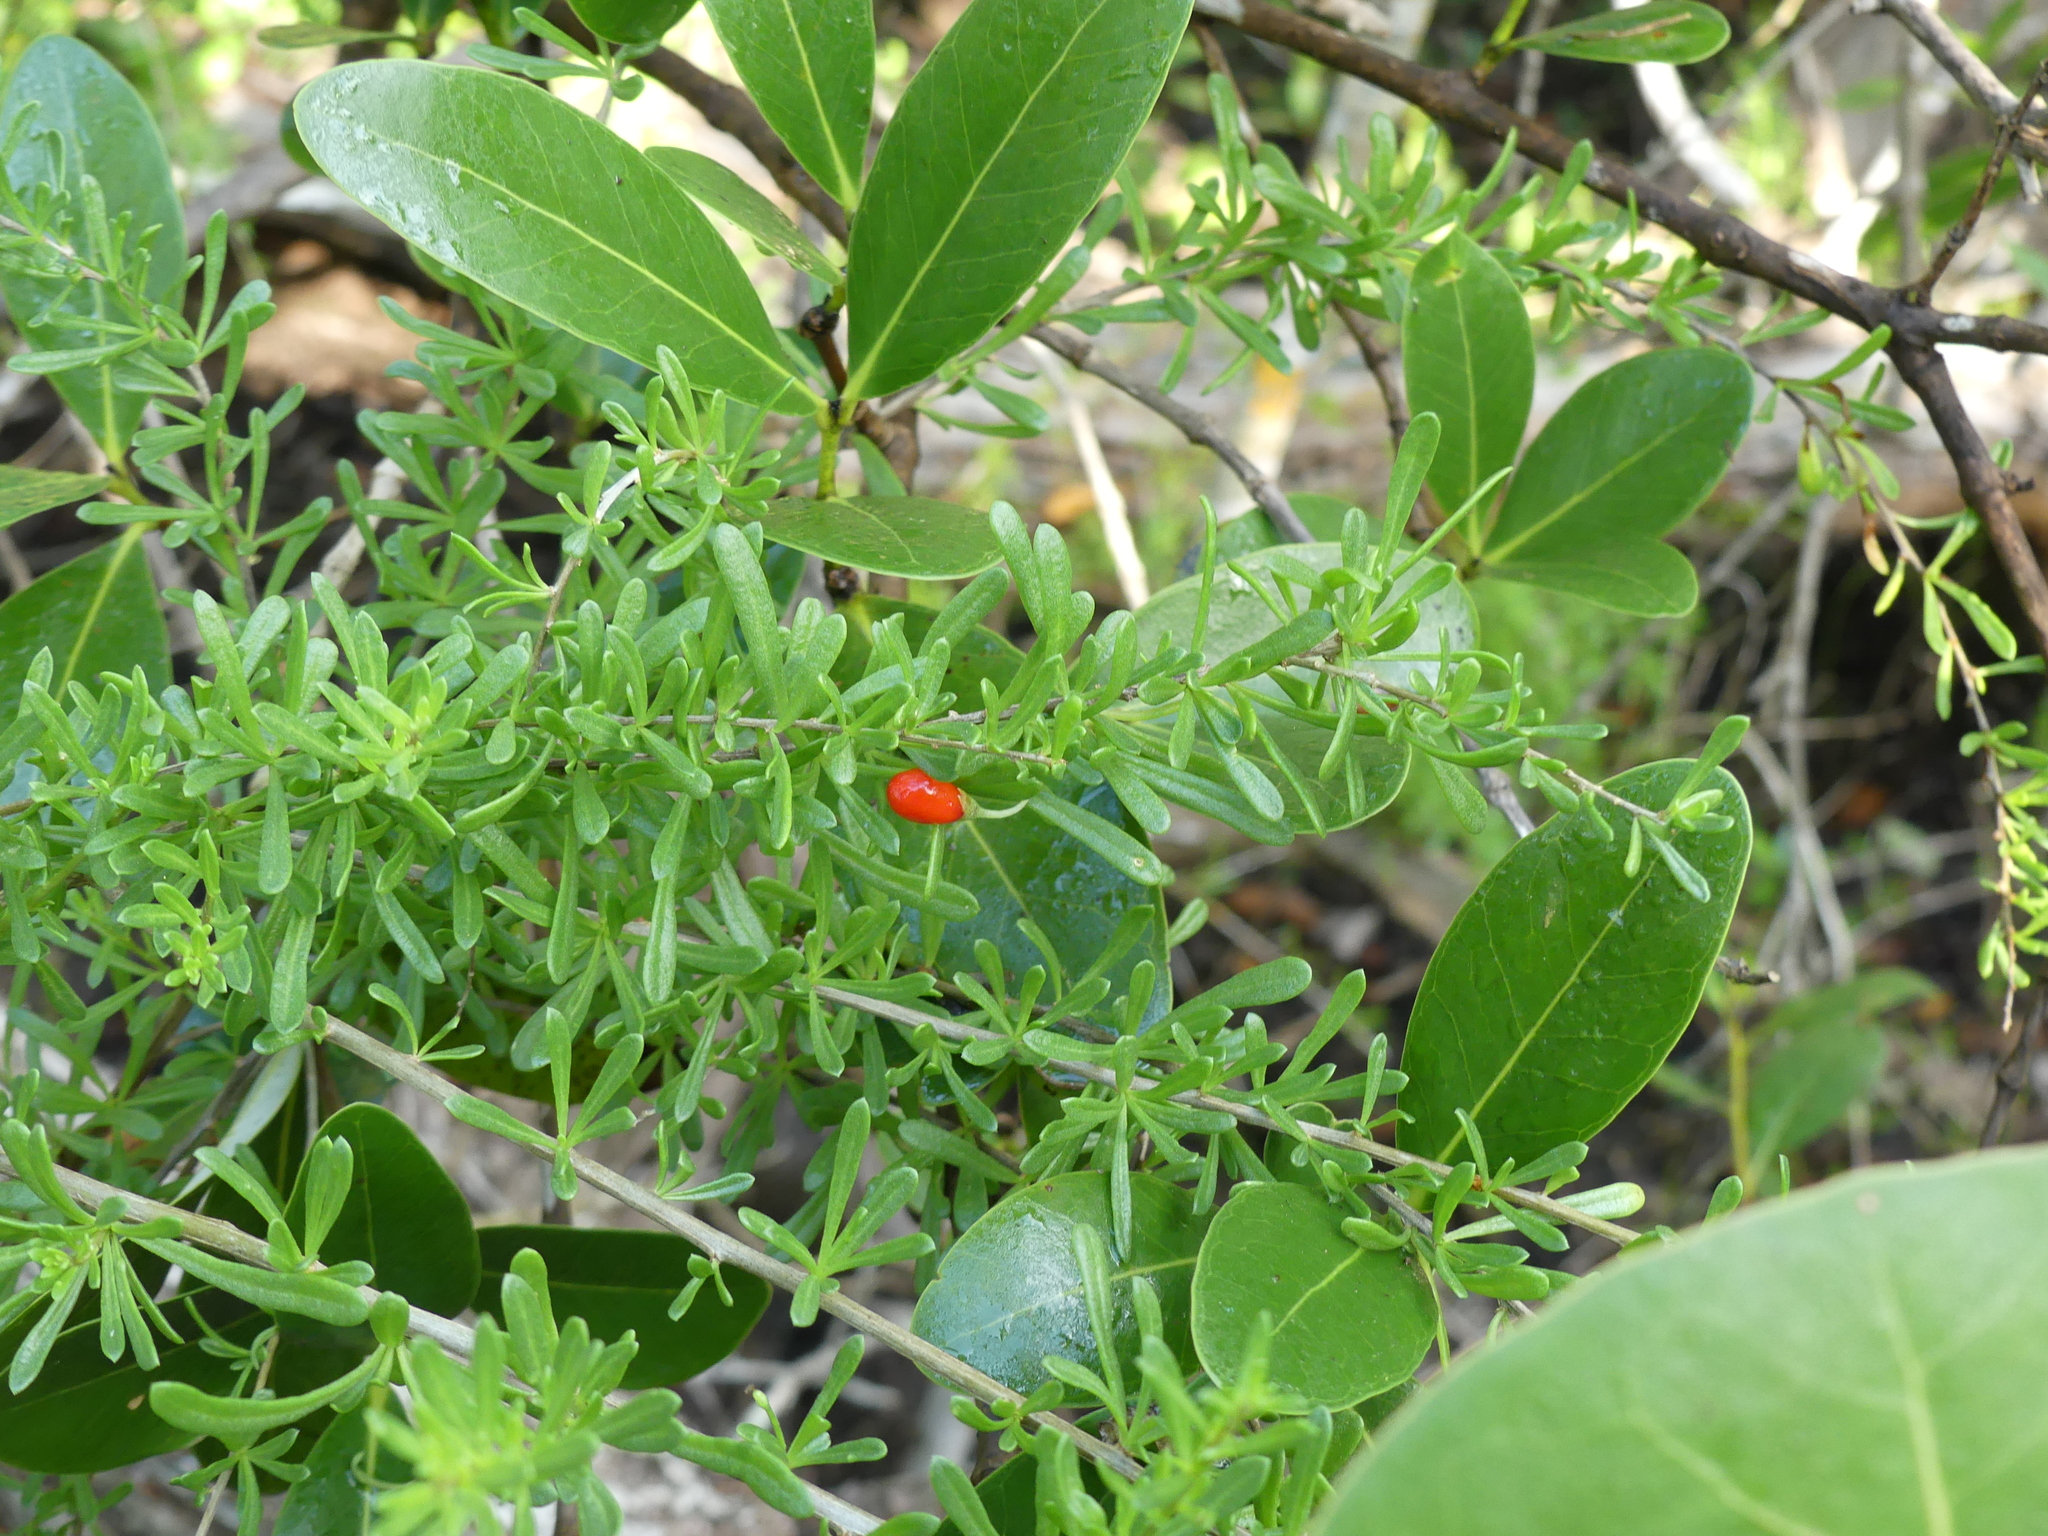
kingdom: Plantae
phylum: Tracheophyta
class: Magnoliopsida
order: Solanales
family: Solanaceae
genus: Lycium
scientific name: Lycium carolinianum
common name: Christmasberry
